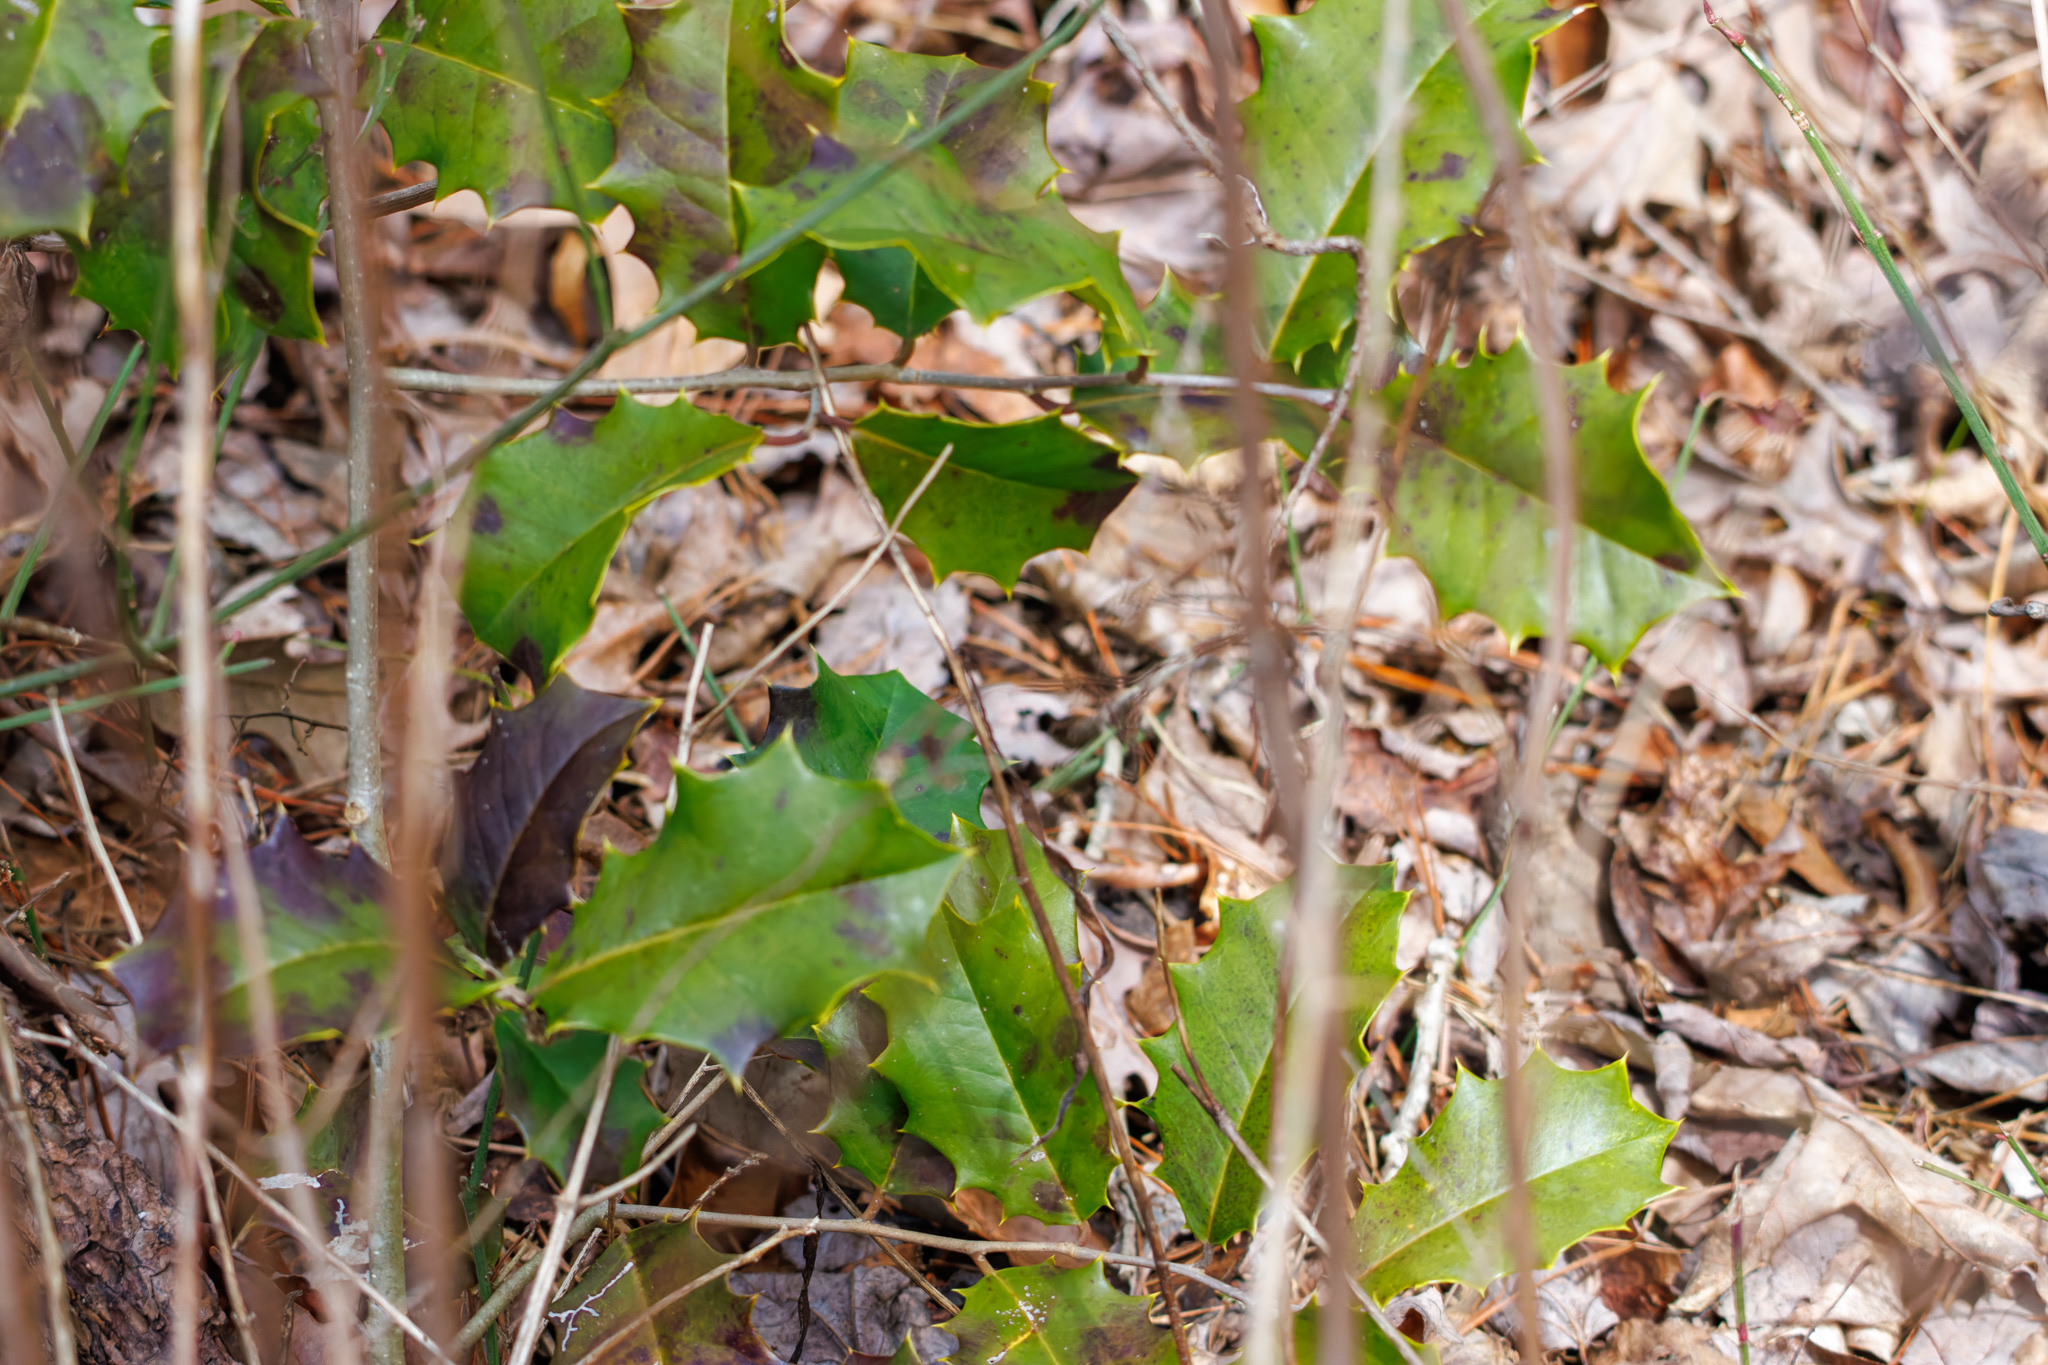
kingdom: Plantae
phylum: Tracheophyta
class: Magnoliopsida
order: Aquifoliales
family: Aquifoliaceae
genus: Ilex
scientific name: Ilex opaca
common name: American holly
